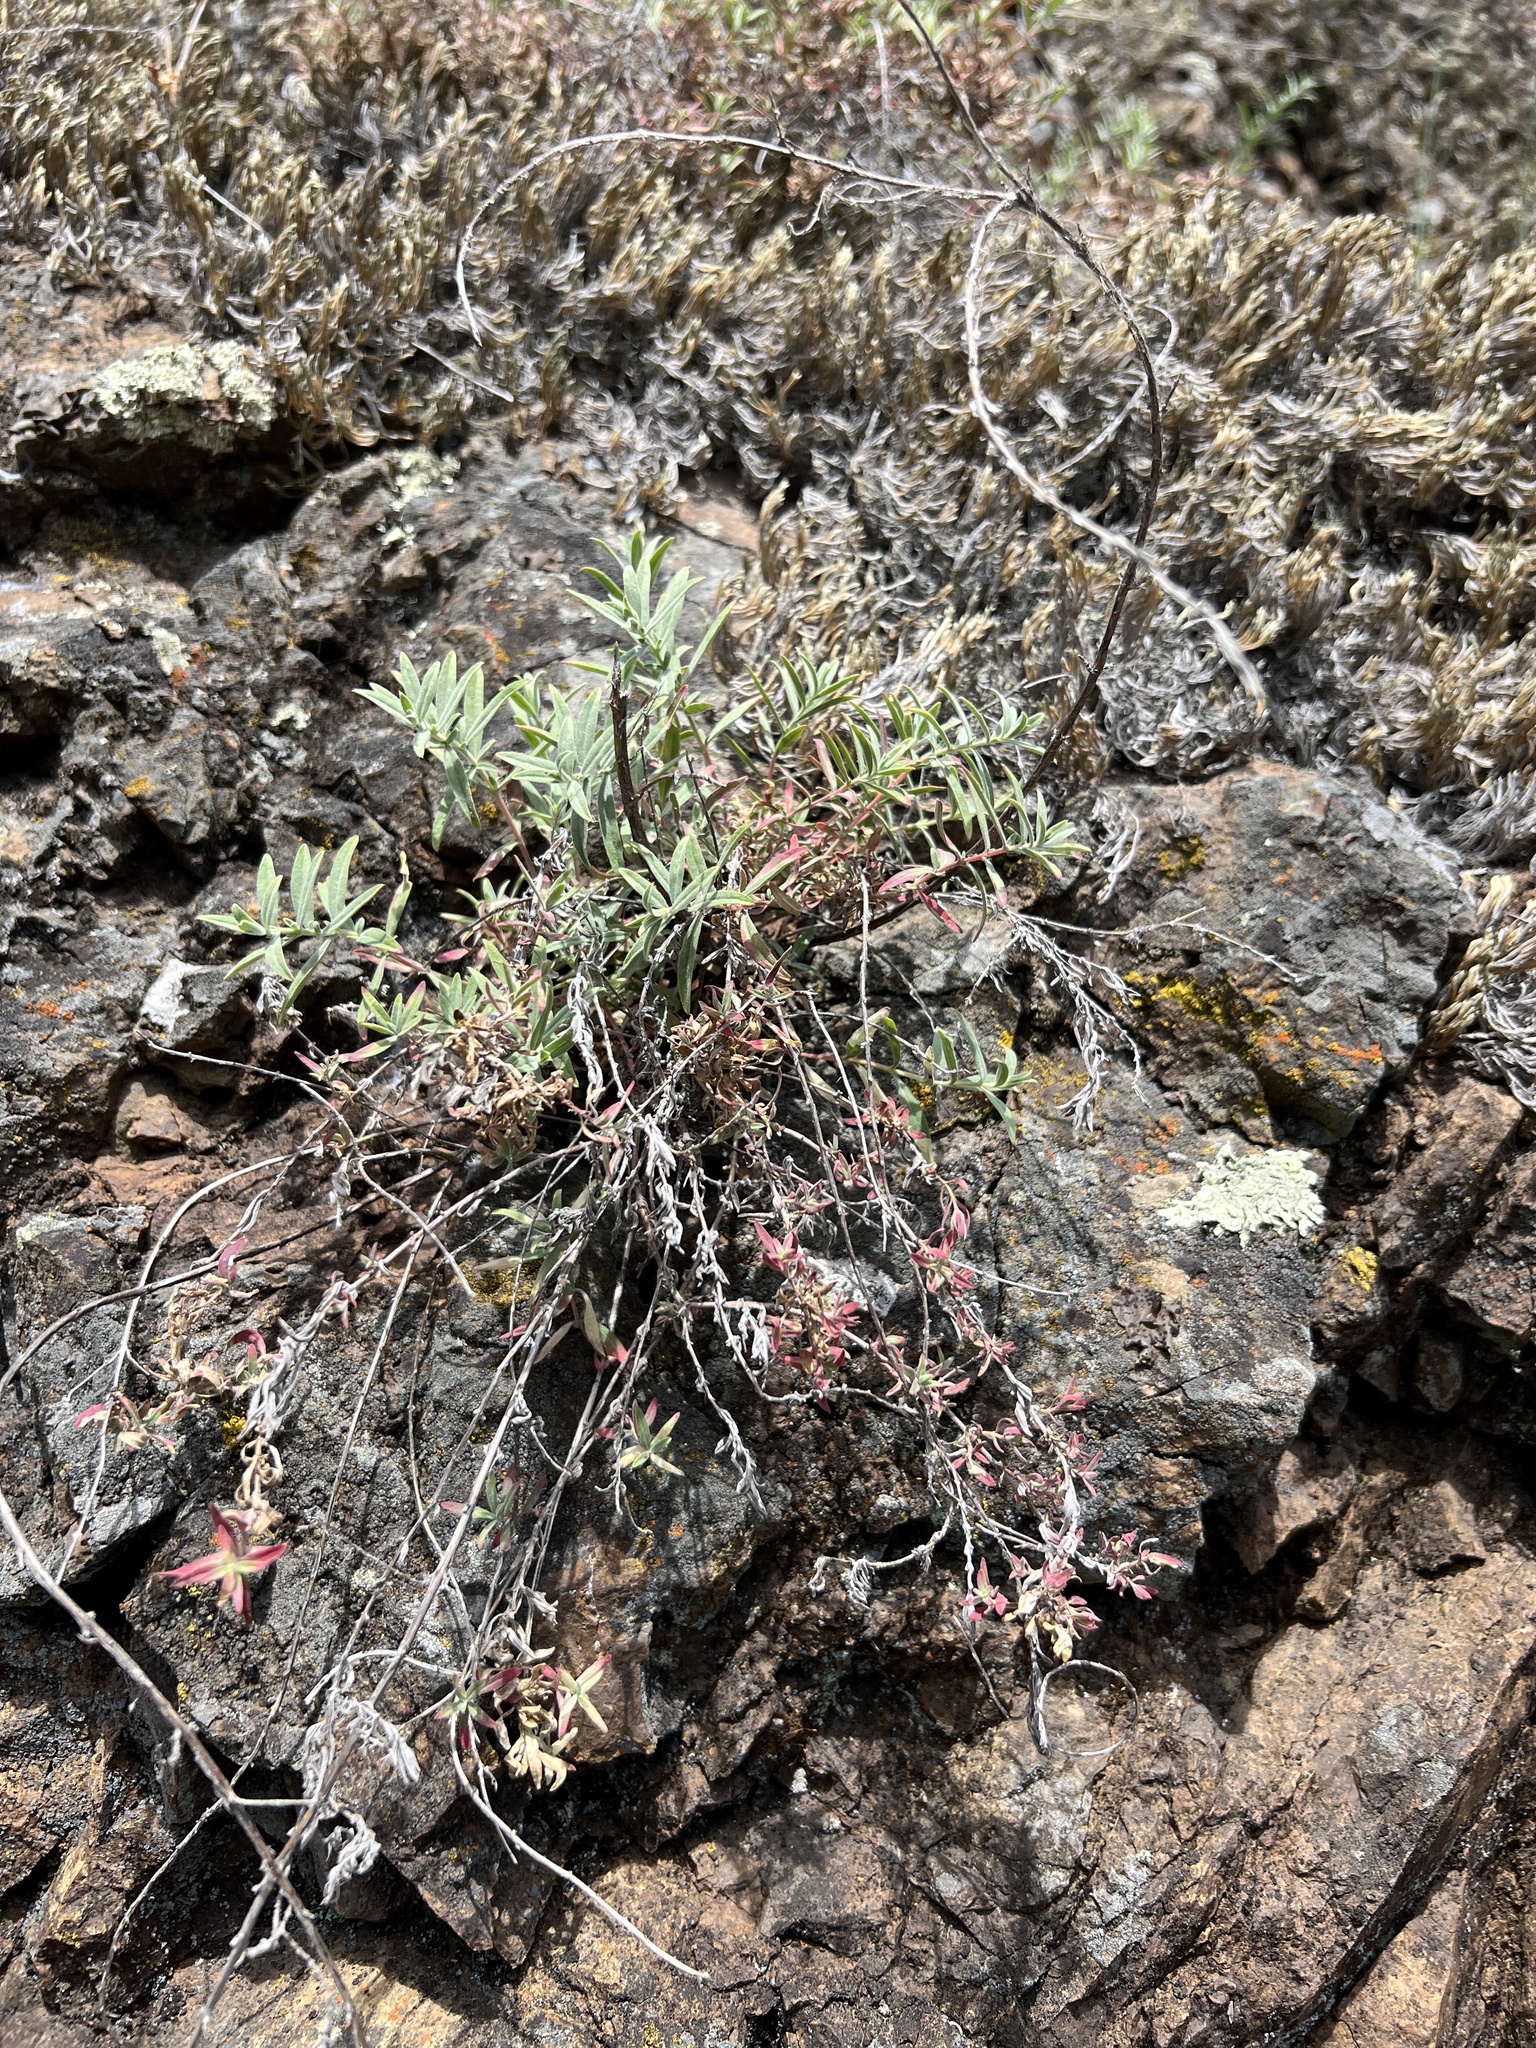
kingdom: Plantae
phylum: Tracheophyta
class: Magnoliopsida
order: Myrtales
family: Onagraceae
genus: Epilobium
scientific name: Epilobium canum
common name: California-fuchsia
